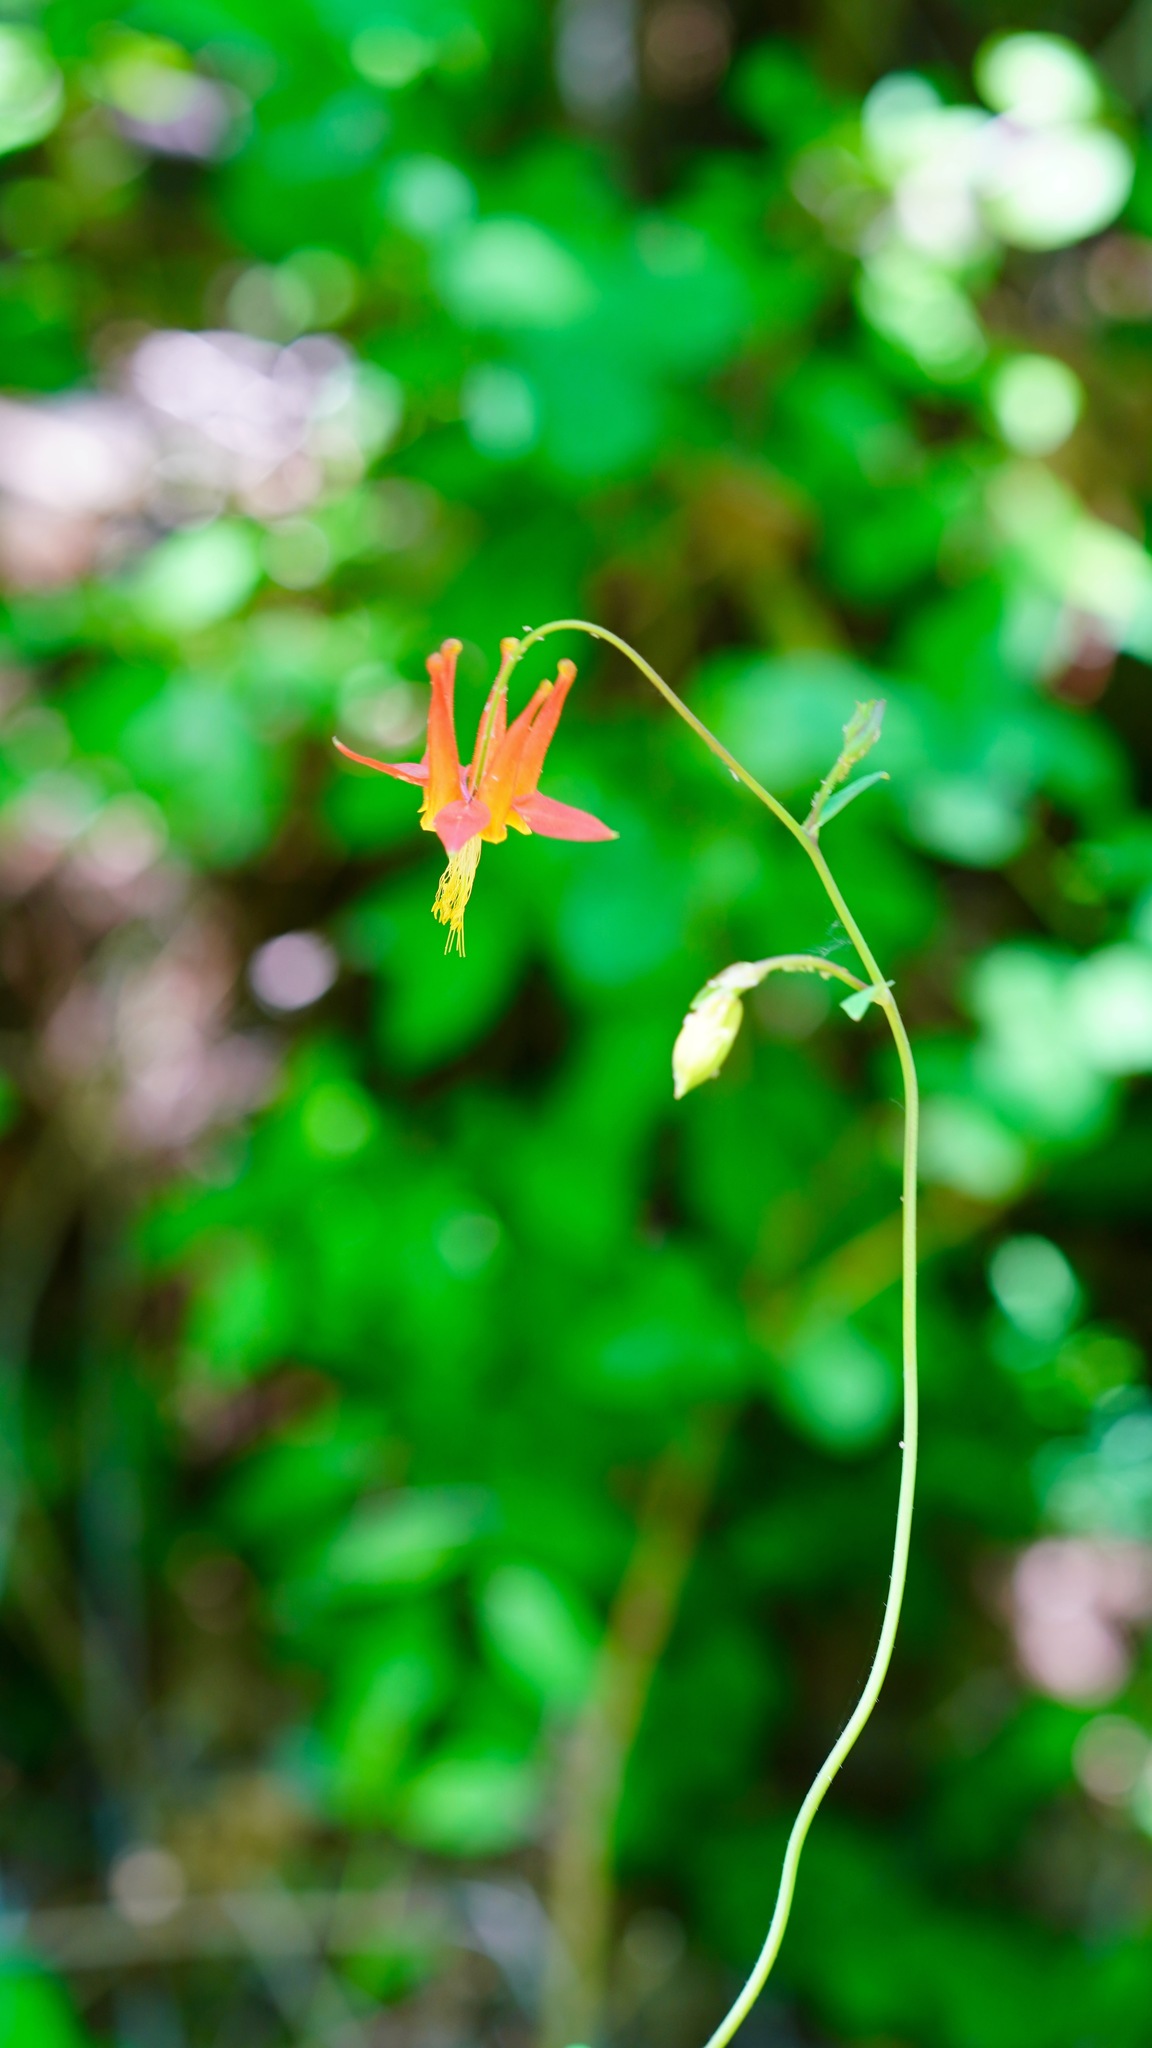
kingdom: Plantae
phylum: Tracheophyta
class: Magnoliopsida
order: Ranunculales
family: Ranunculaceae
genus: Aquilegia
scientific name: Aquilegia formosa
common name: Sitka columbine
